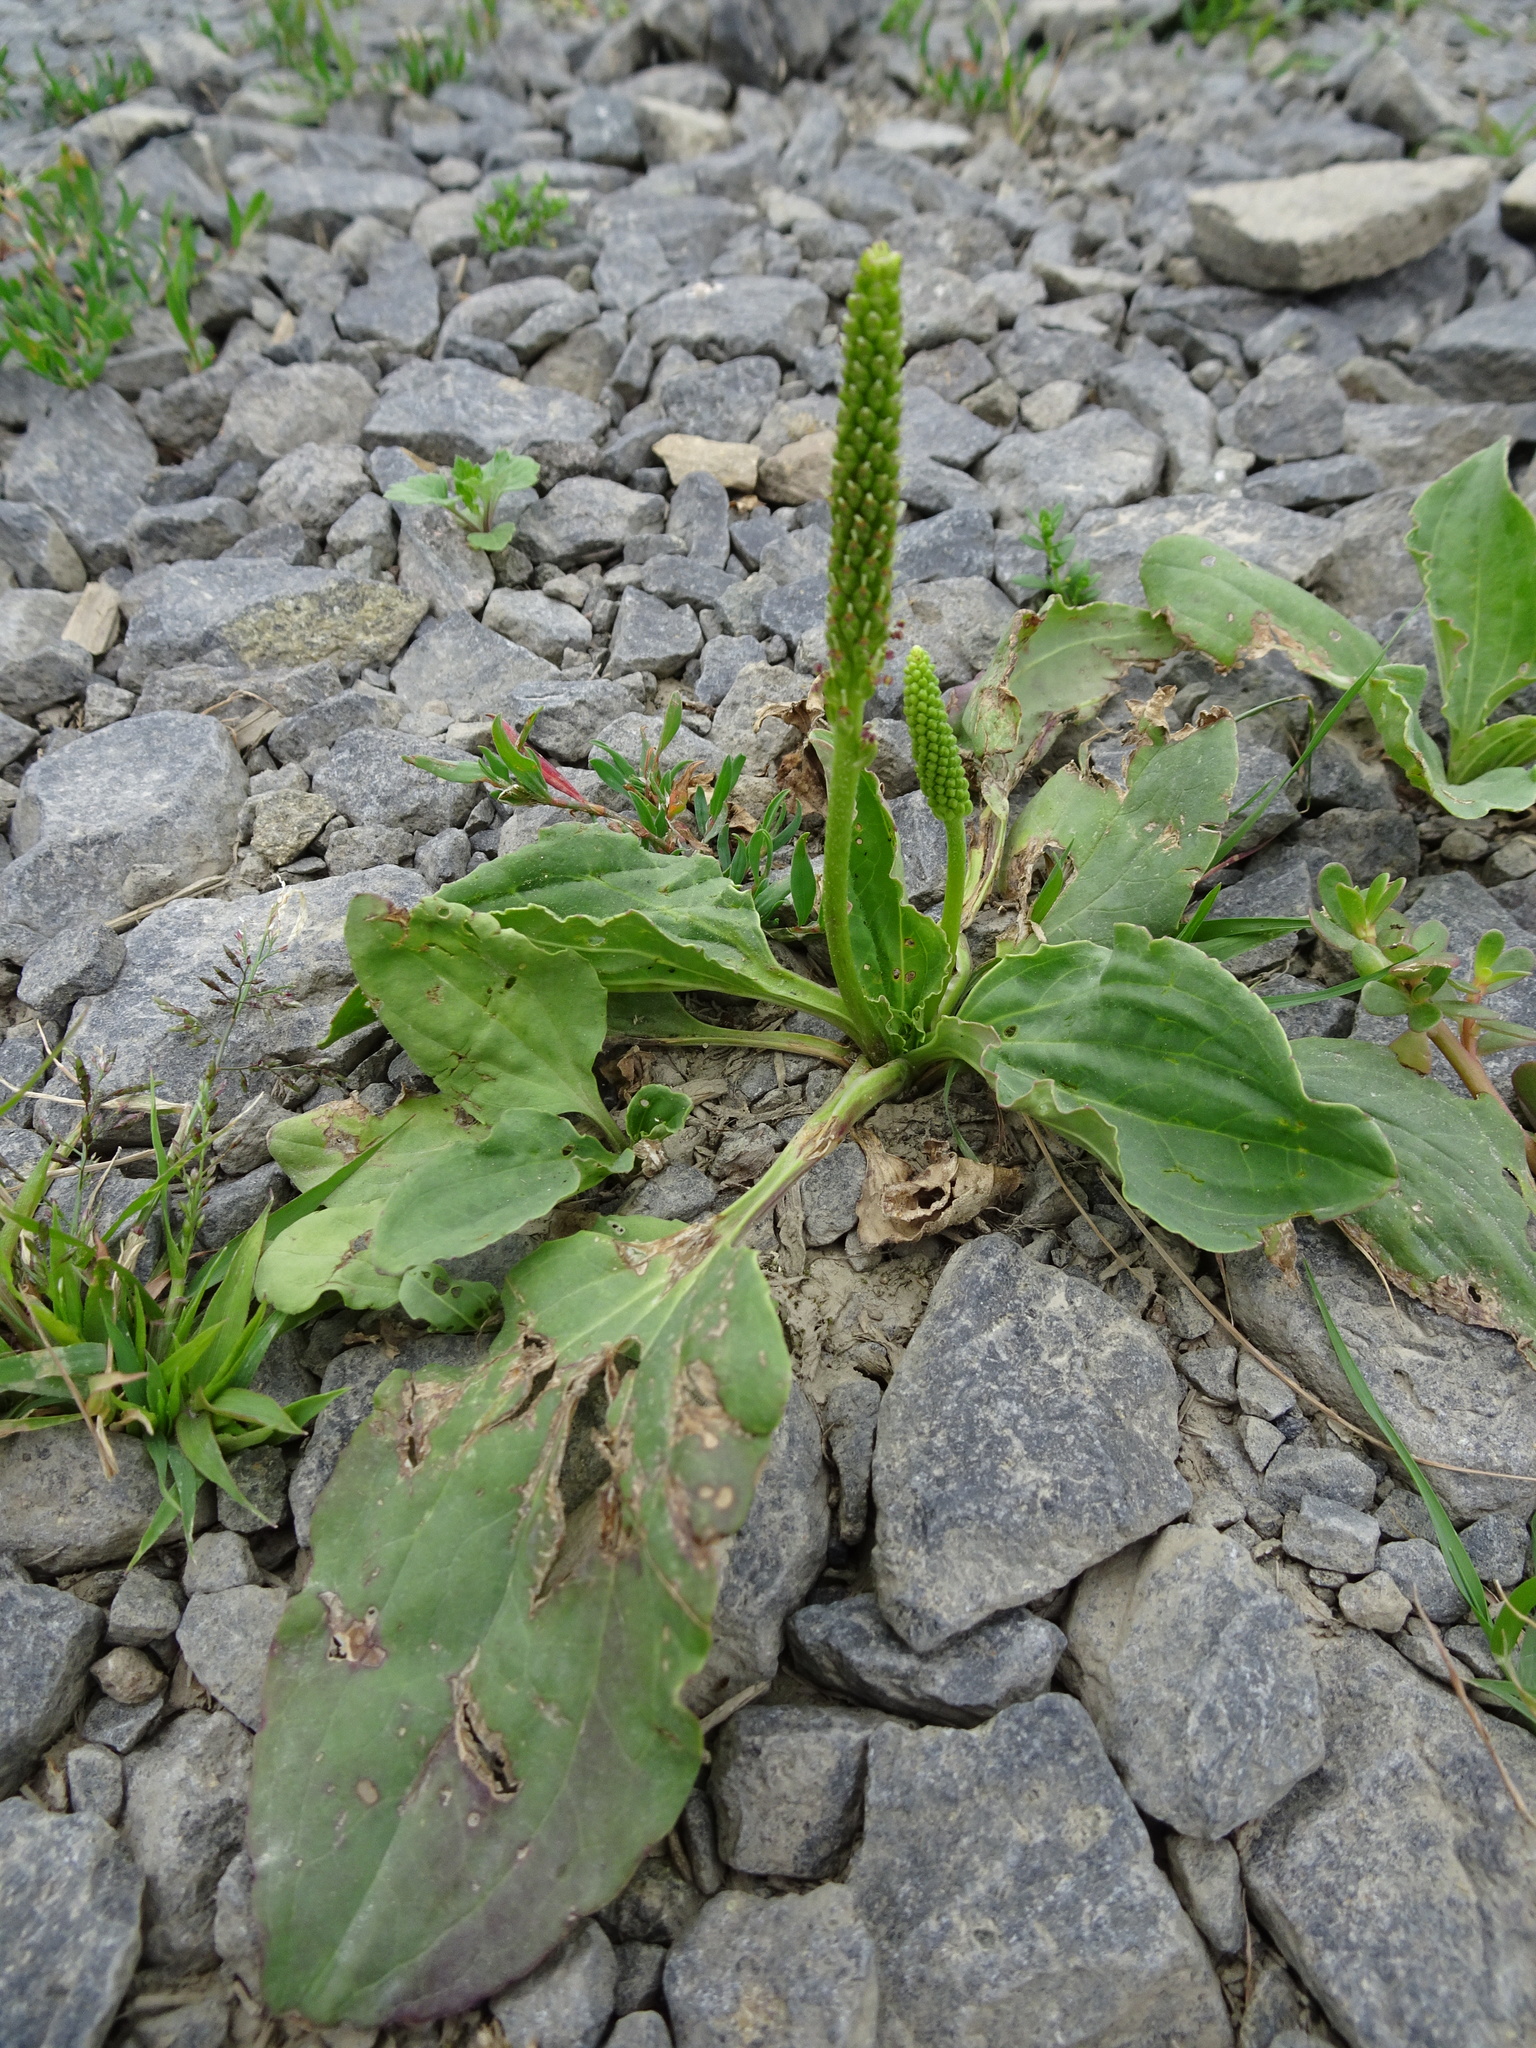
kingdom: Plantae
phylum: Tracheophyta
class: Magnoliopsida
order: Lamiales
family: Plantaginaceae
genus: Plantago
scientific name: Plantago major
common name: Common plantain
